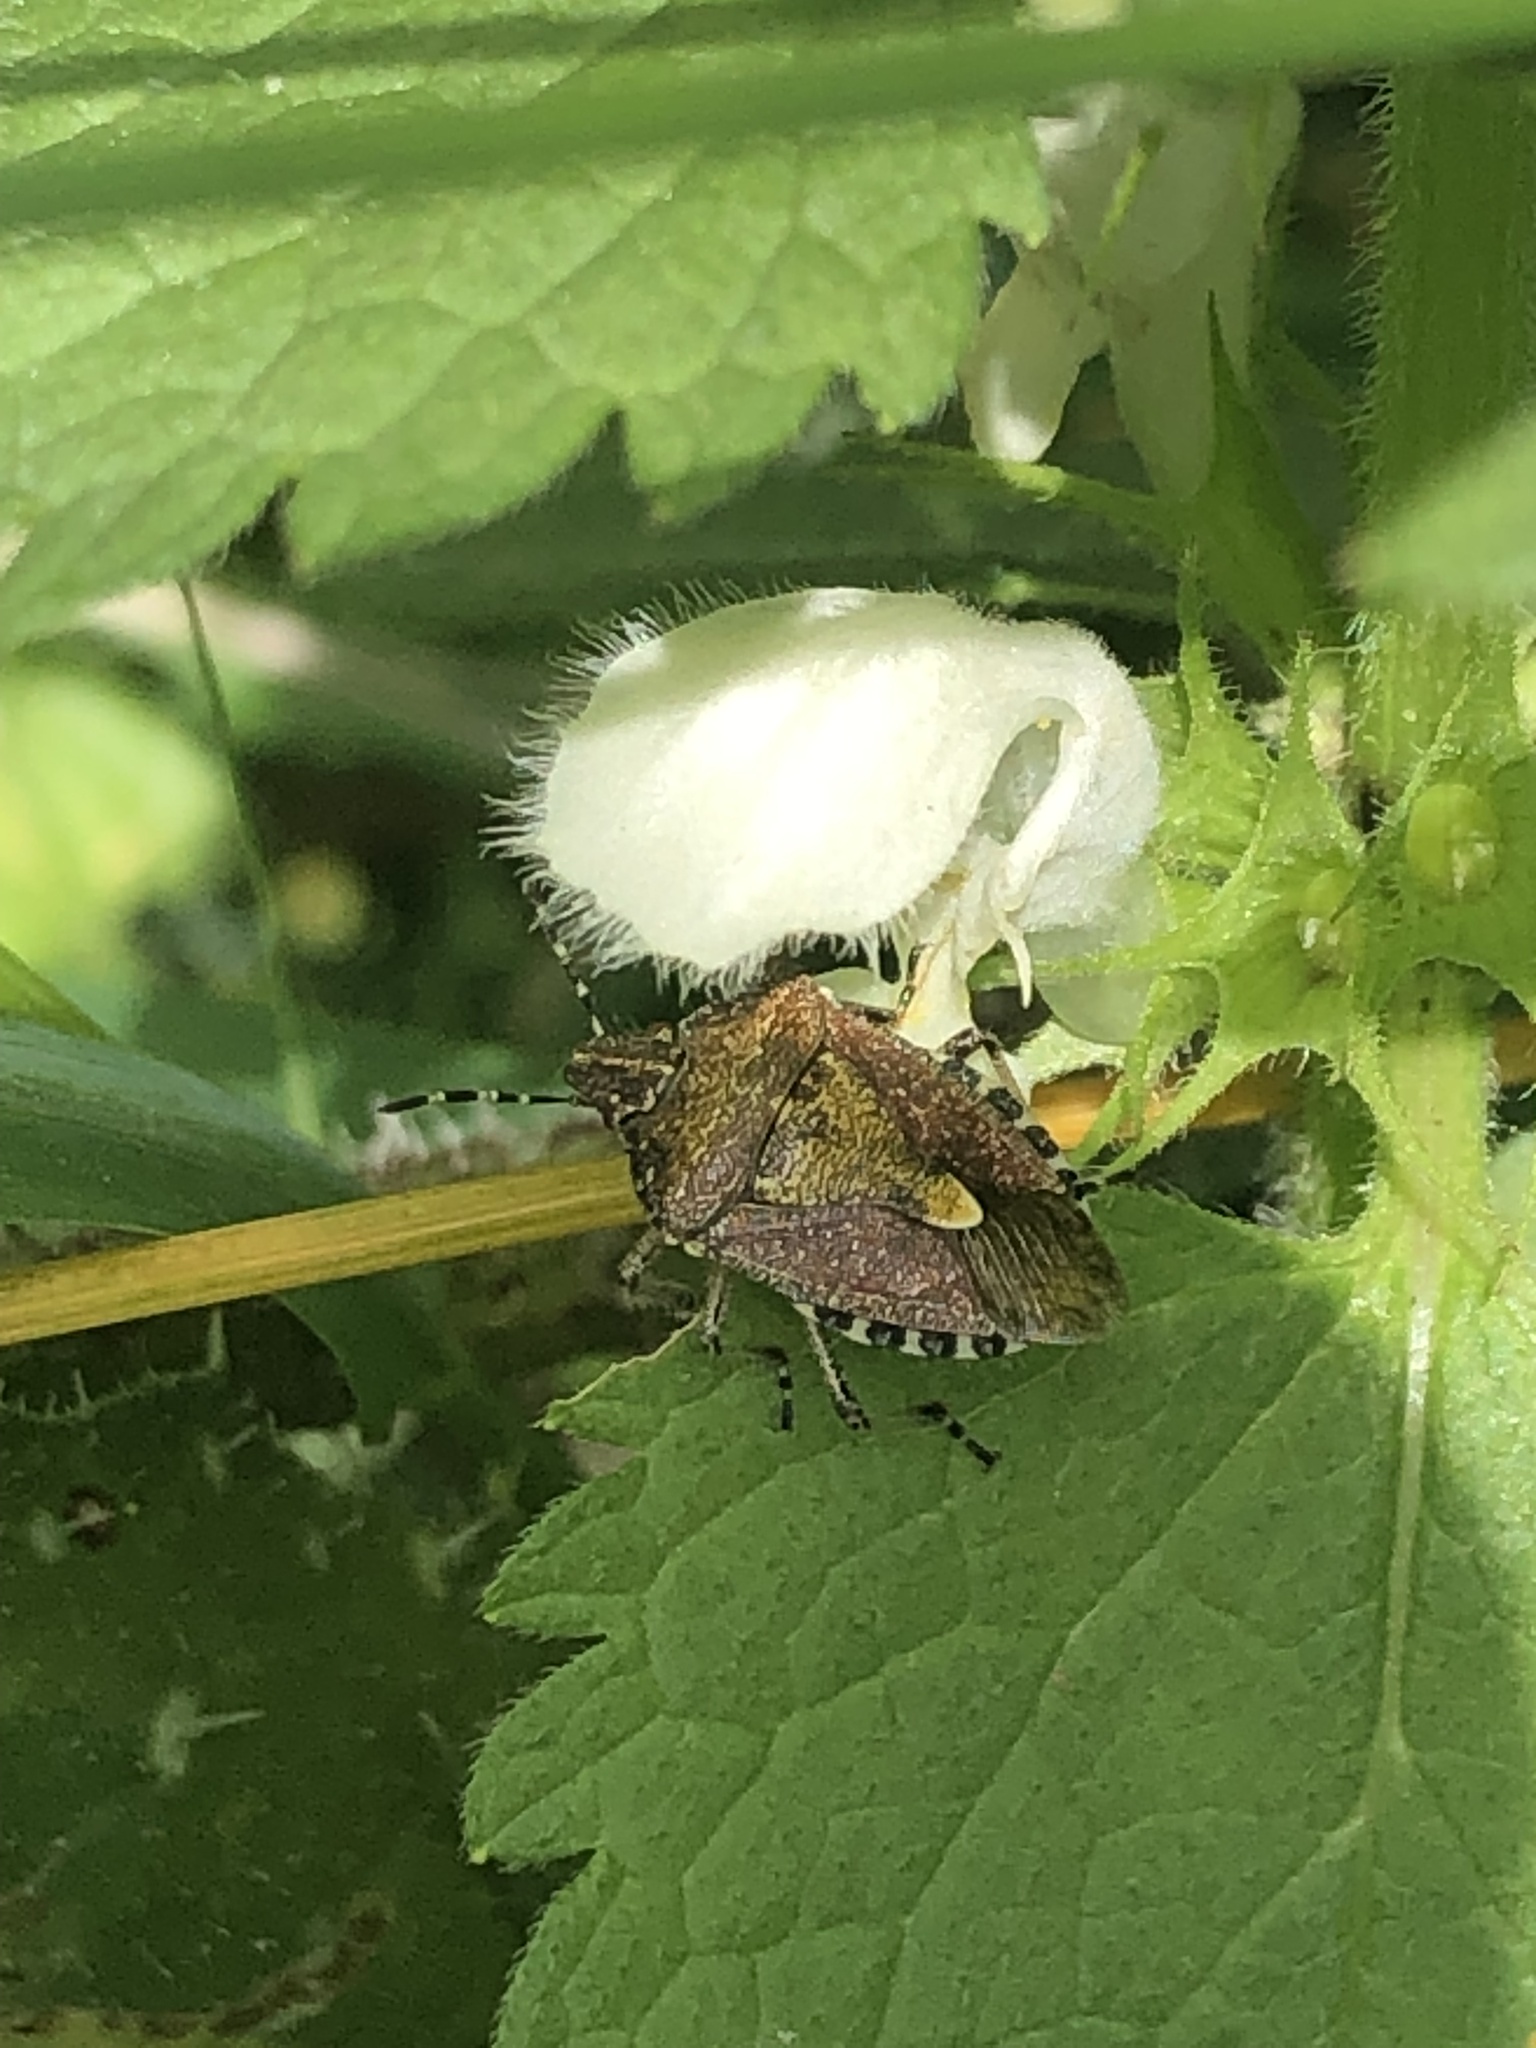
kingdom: Animalia
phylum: Arthropoda
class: Insecta
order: Hemiptera
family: Pentatomidae
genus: Dolycoris
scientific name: Dolycoris baccarum
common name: Sloe bug
